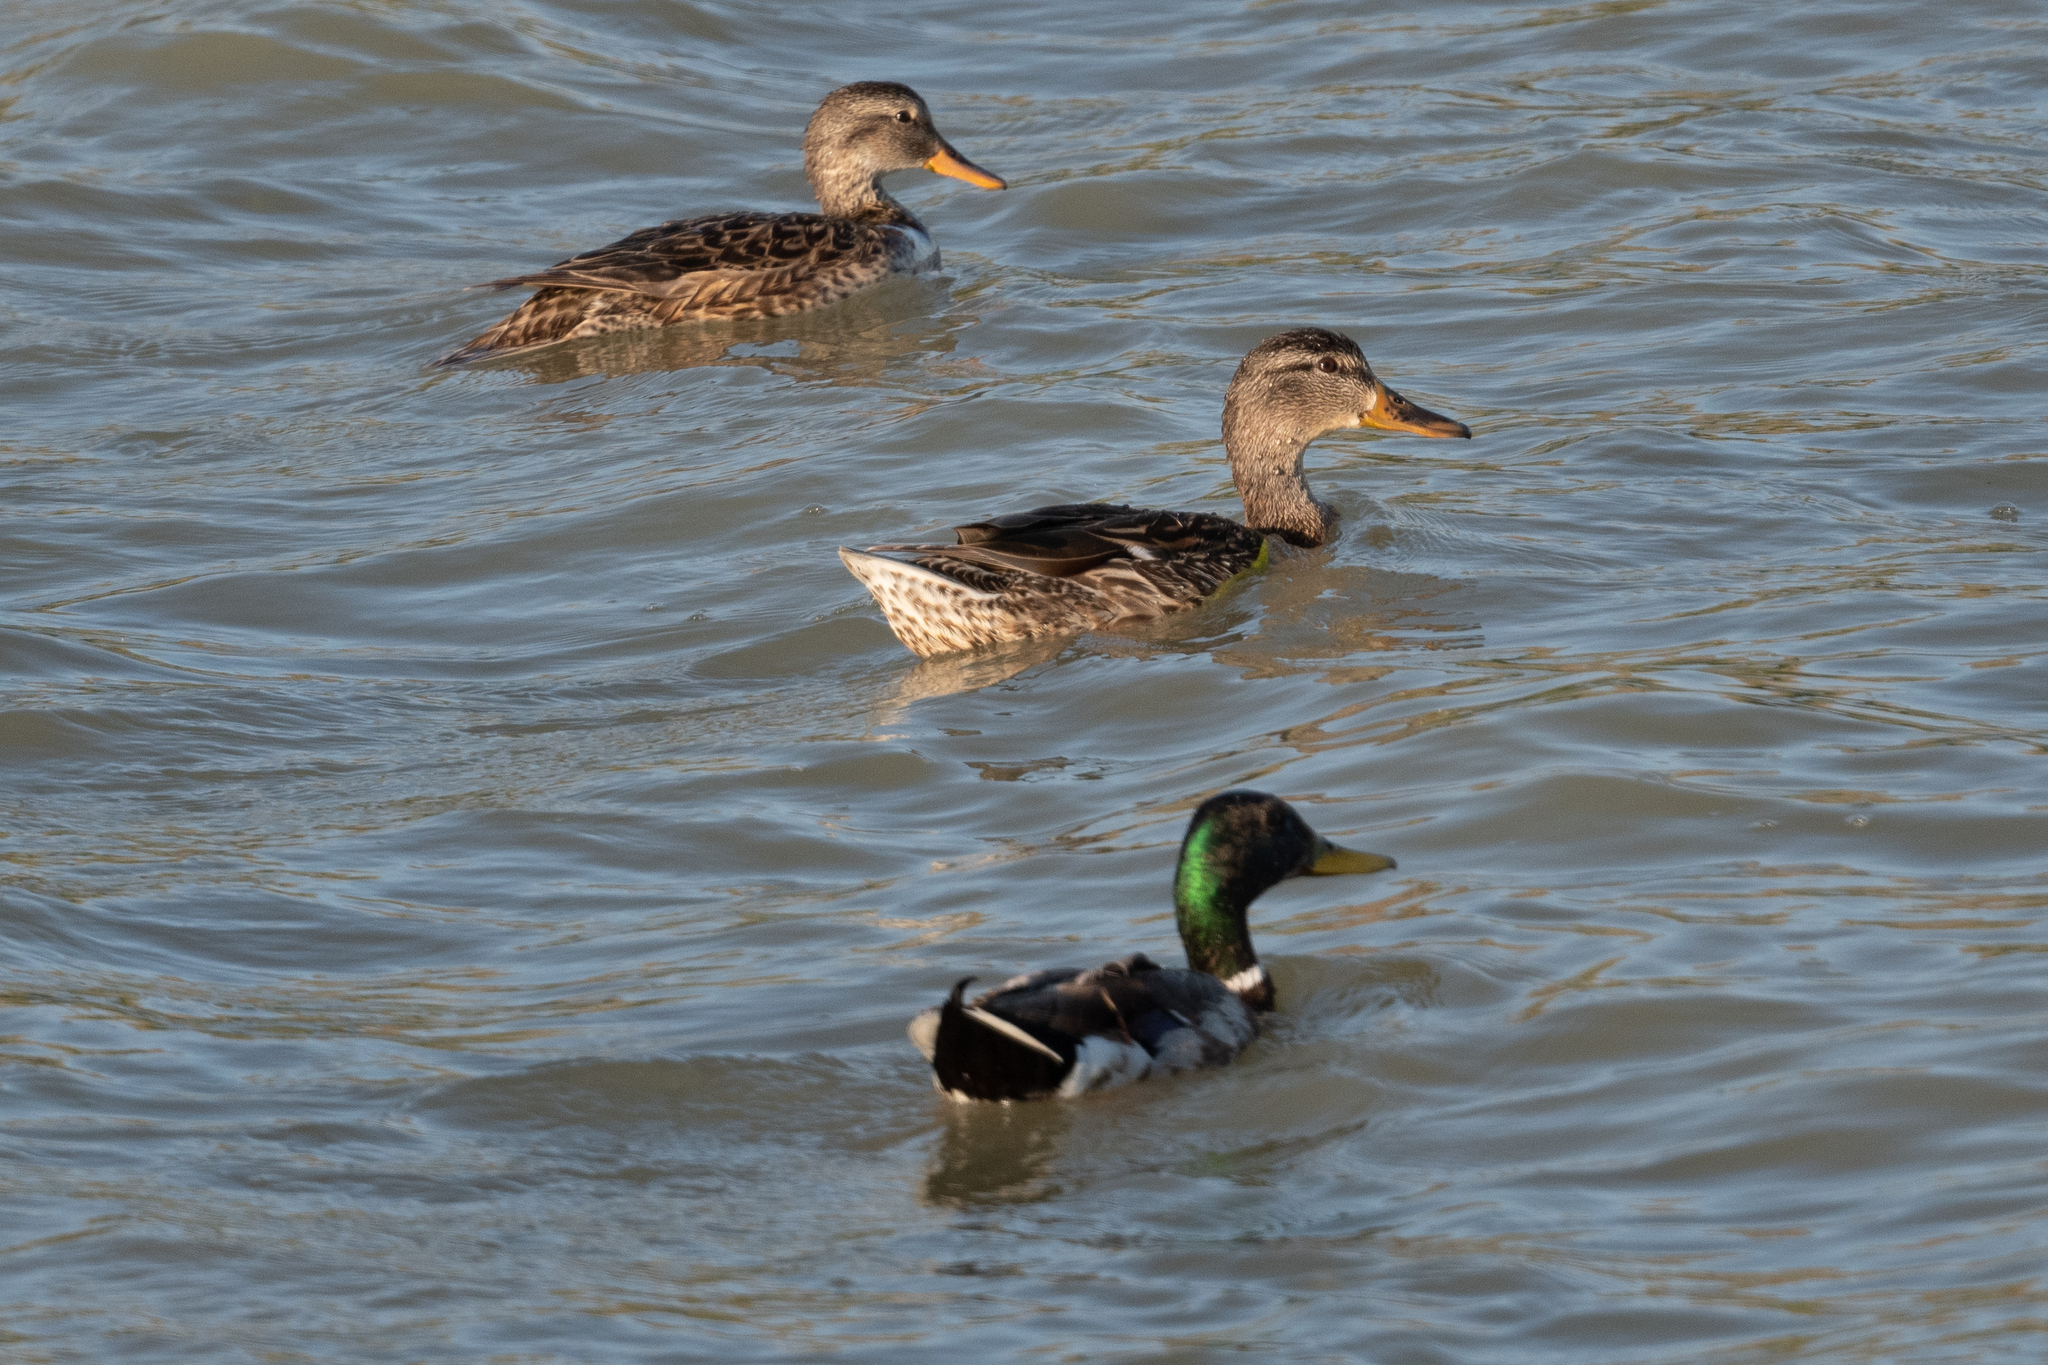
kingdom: Animalia
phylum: Chordata
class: Aves
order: Anseriformes
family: Anatidae
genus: Anas
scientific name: Anas platyrhynchos
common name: Mallard
